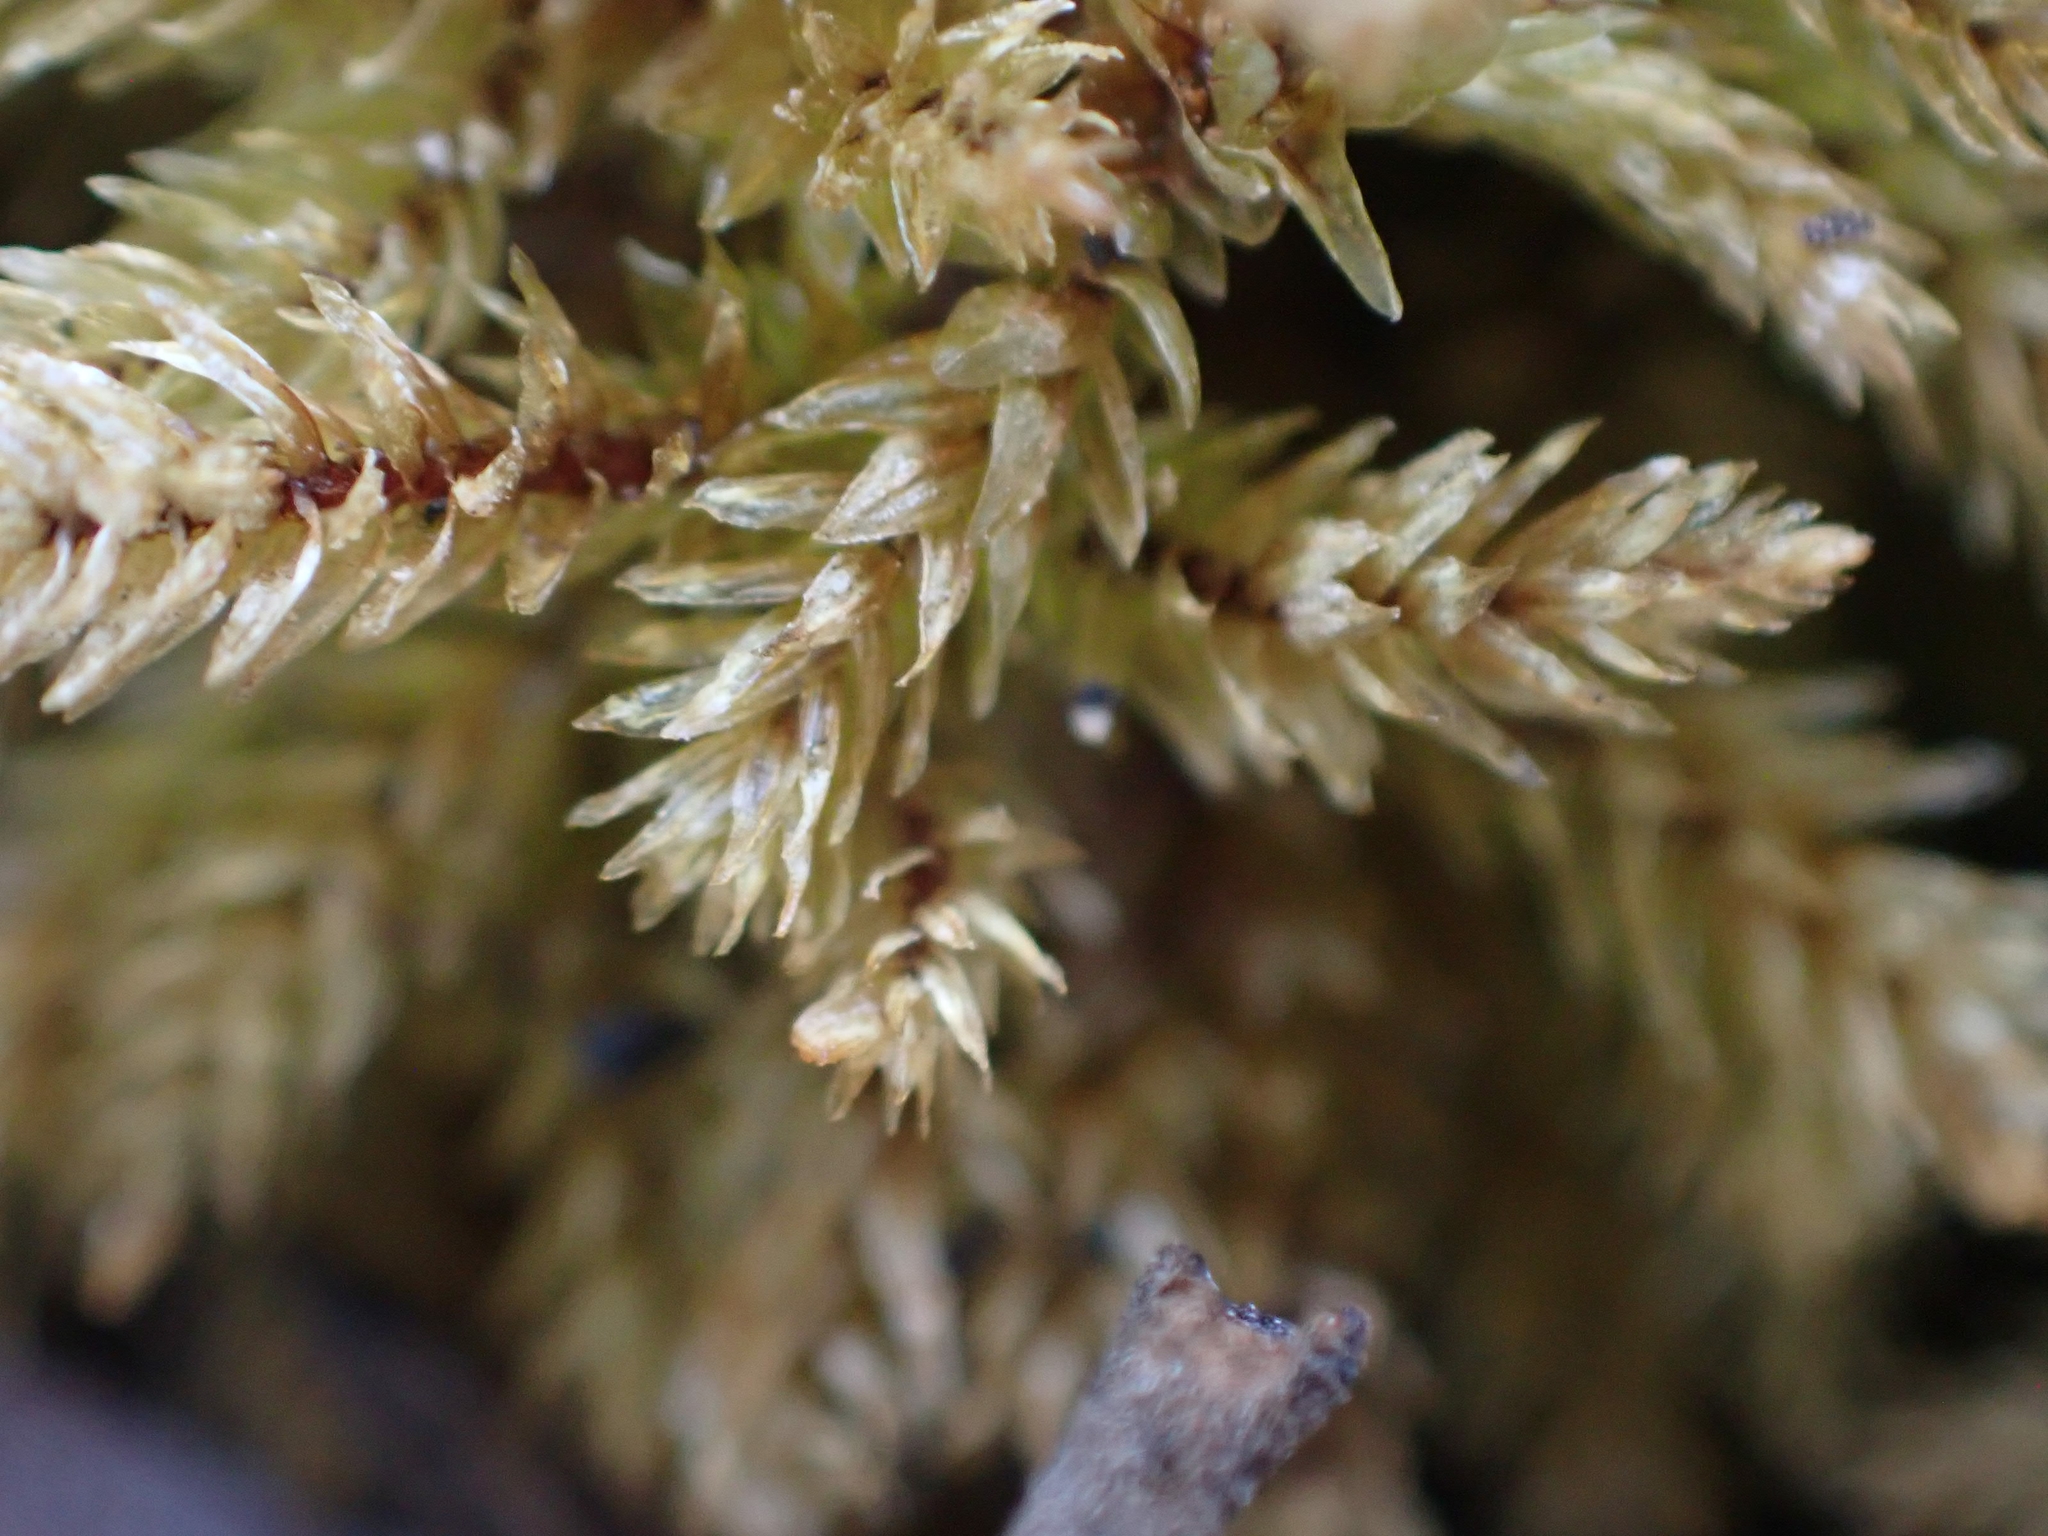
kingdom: Plantae
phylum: Bryophyta
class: Bryopsida
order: Hypnales
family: Climaciaceae
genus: Climacium
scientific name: Climacium dendroides
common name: Northern tree moss
